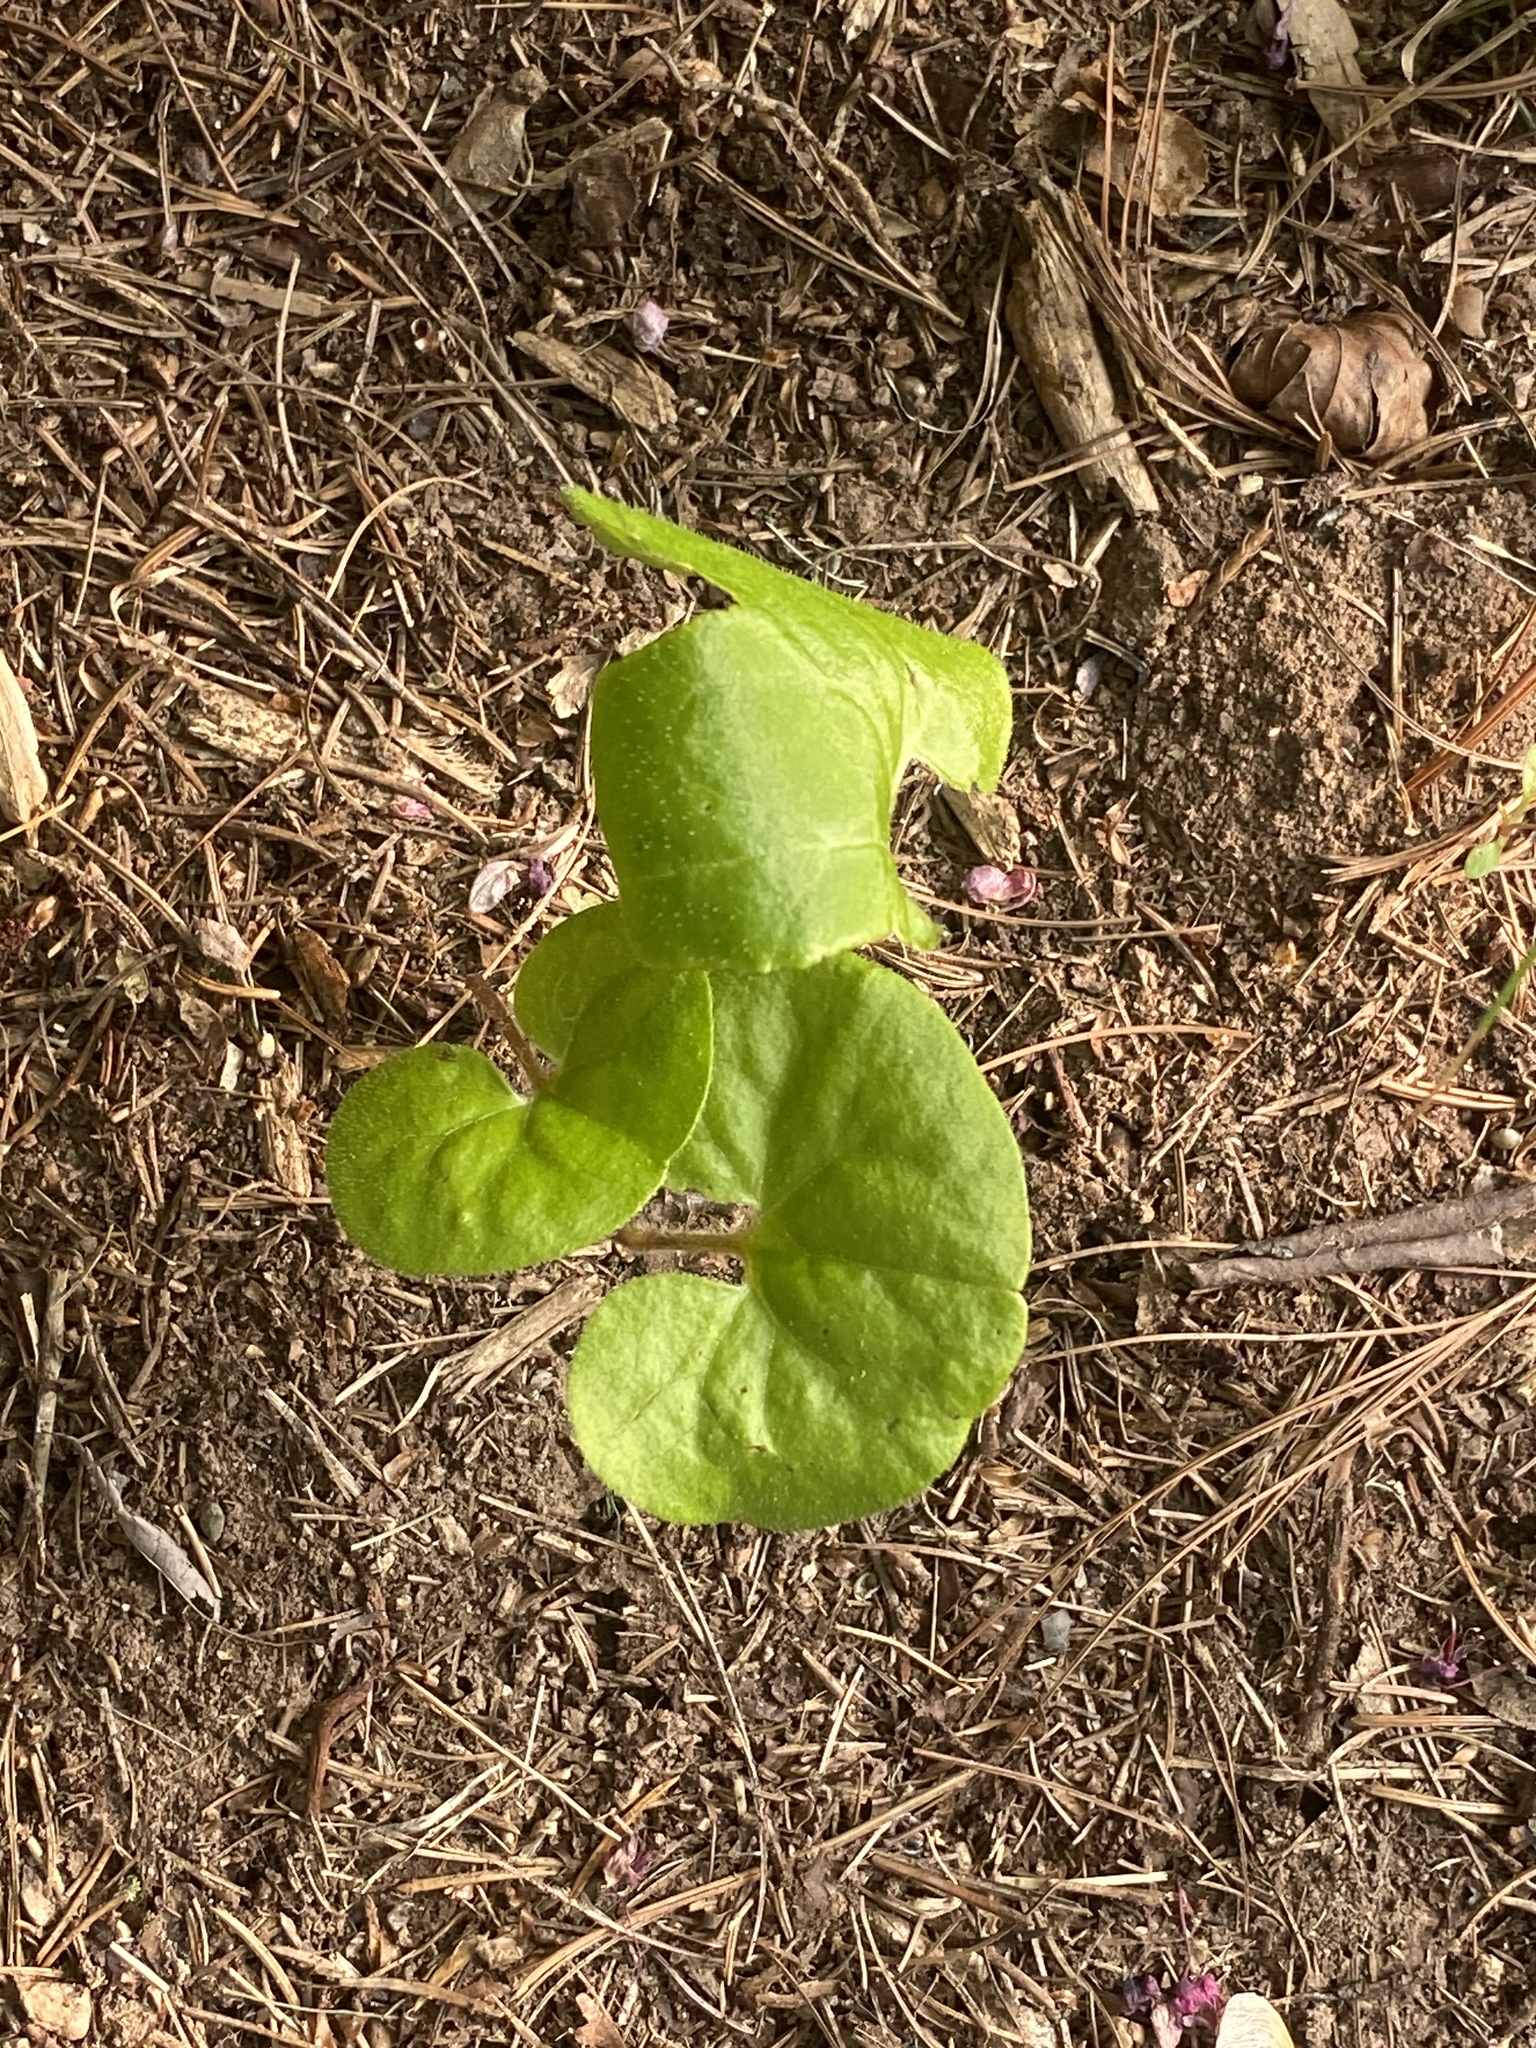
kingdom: Plantae
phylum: Tracheophyta
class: Magnoliopsida
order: Piperales
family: Aristolochiaceae
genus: Asarum
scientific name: Asarum canadense
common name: Wild ginger
